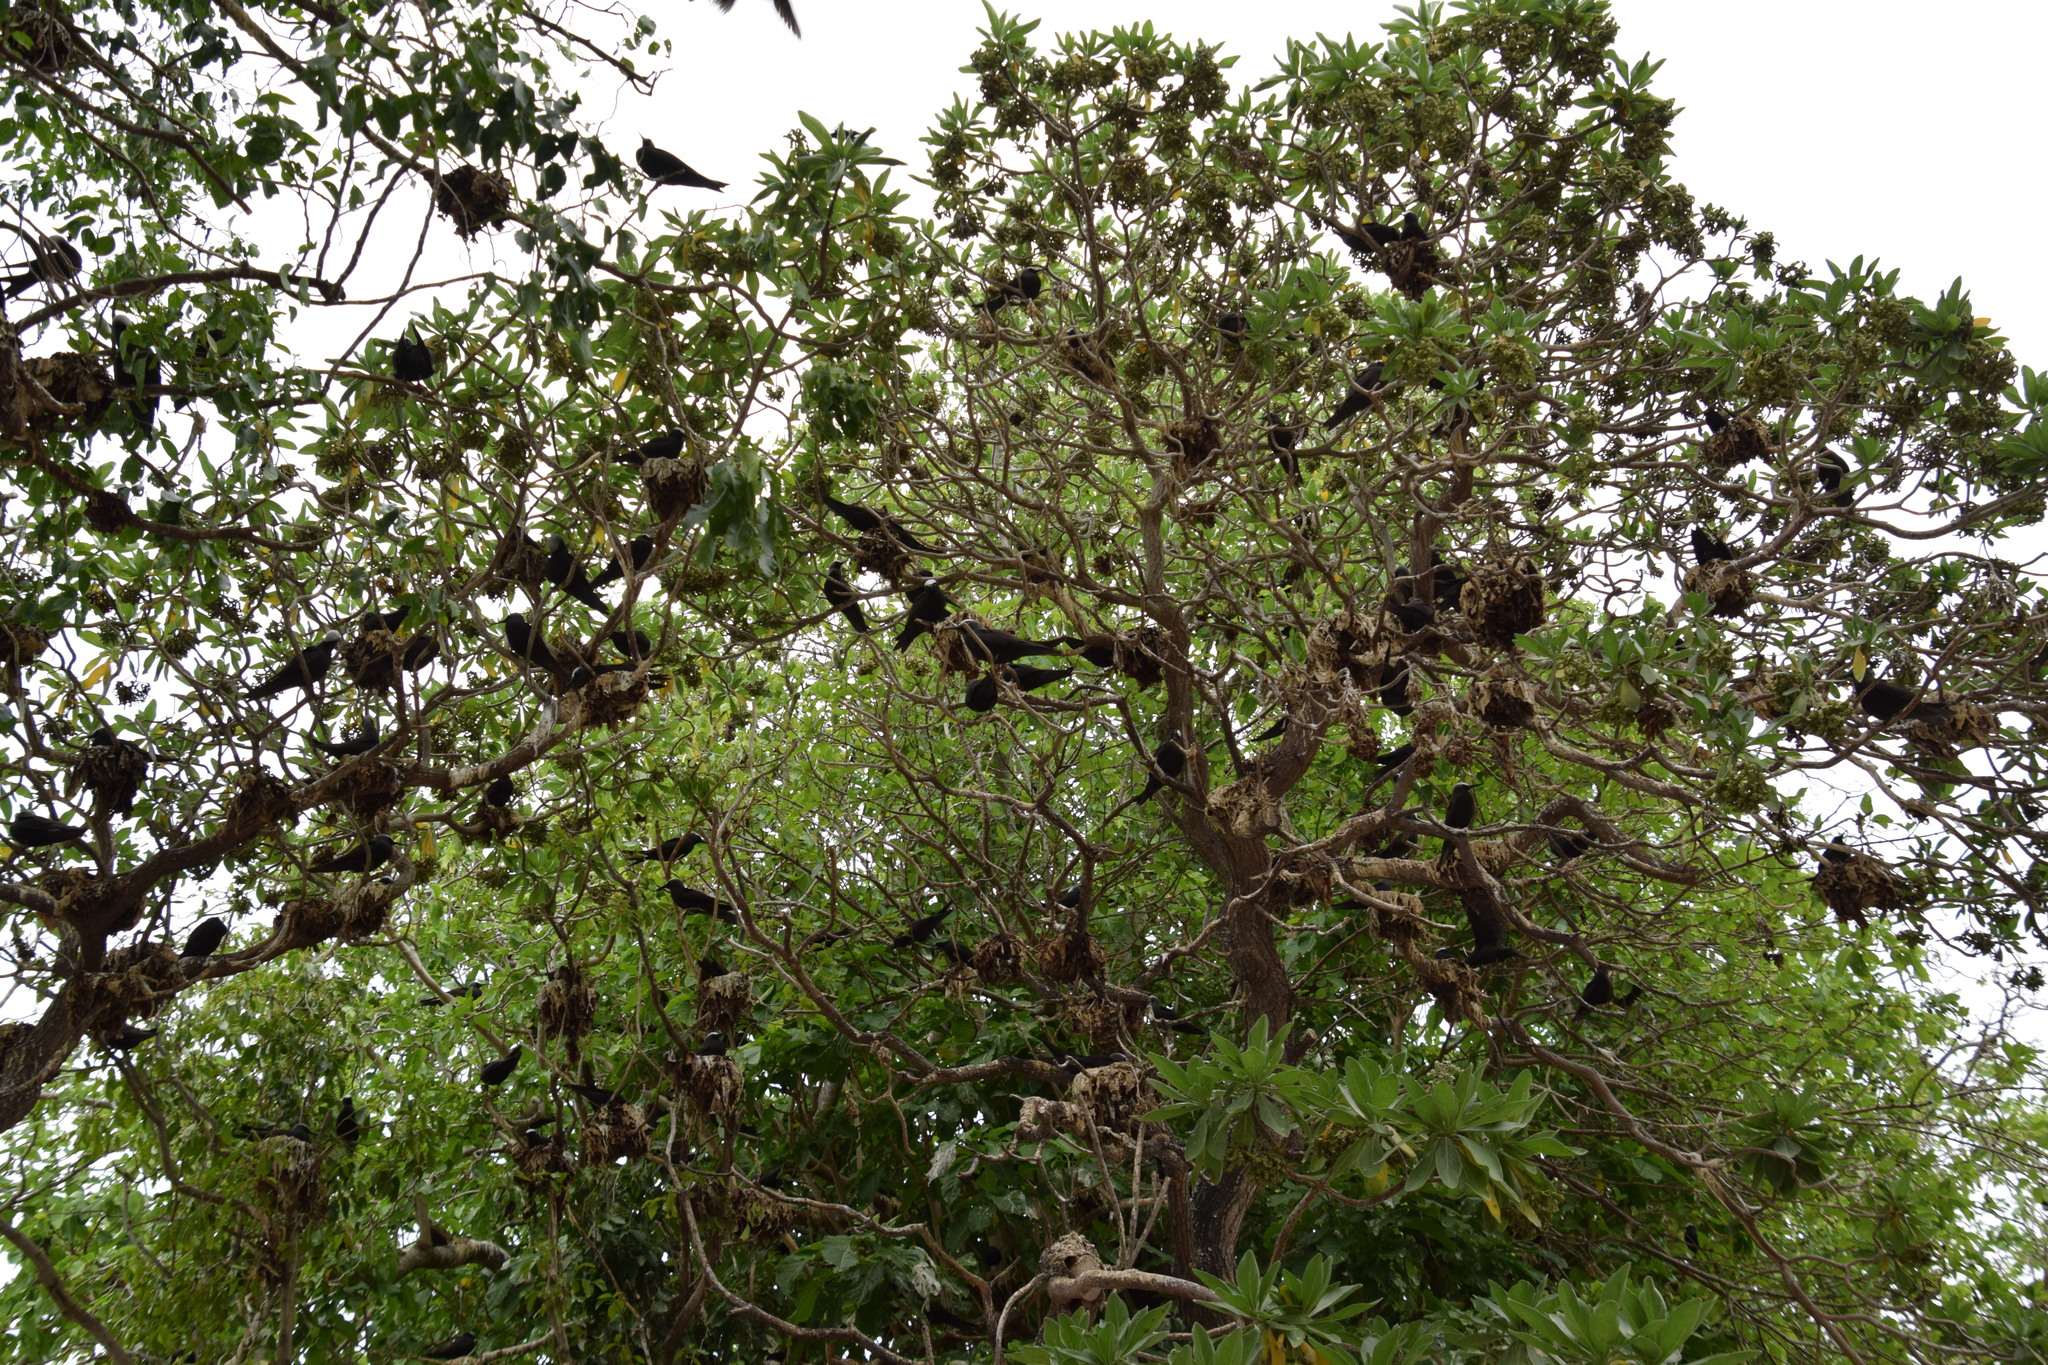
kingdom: Animalia
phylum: Chordata
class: Aves
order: Charadriiformes
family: Laridae
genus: Anous
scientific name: Anous minutus
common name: Black noddy
